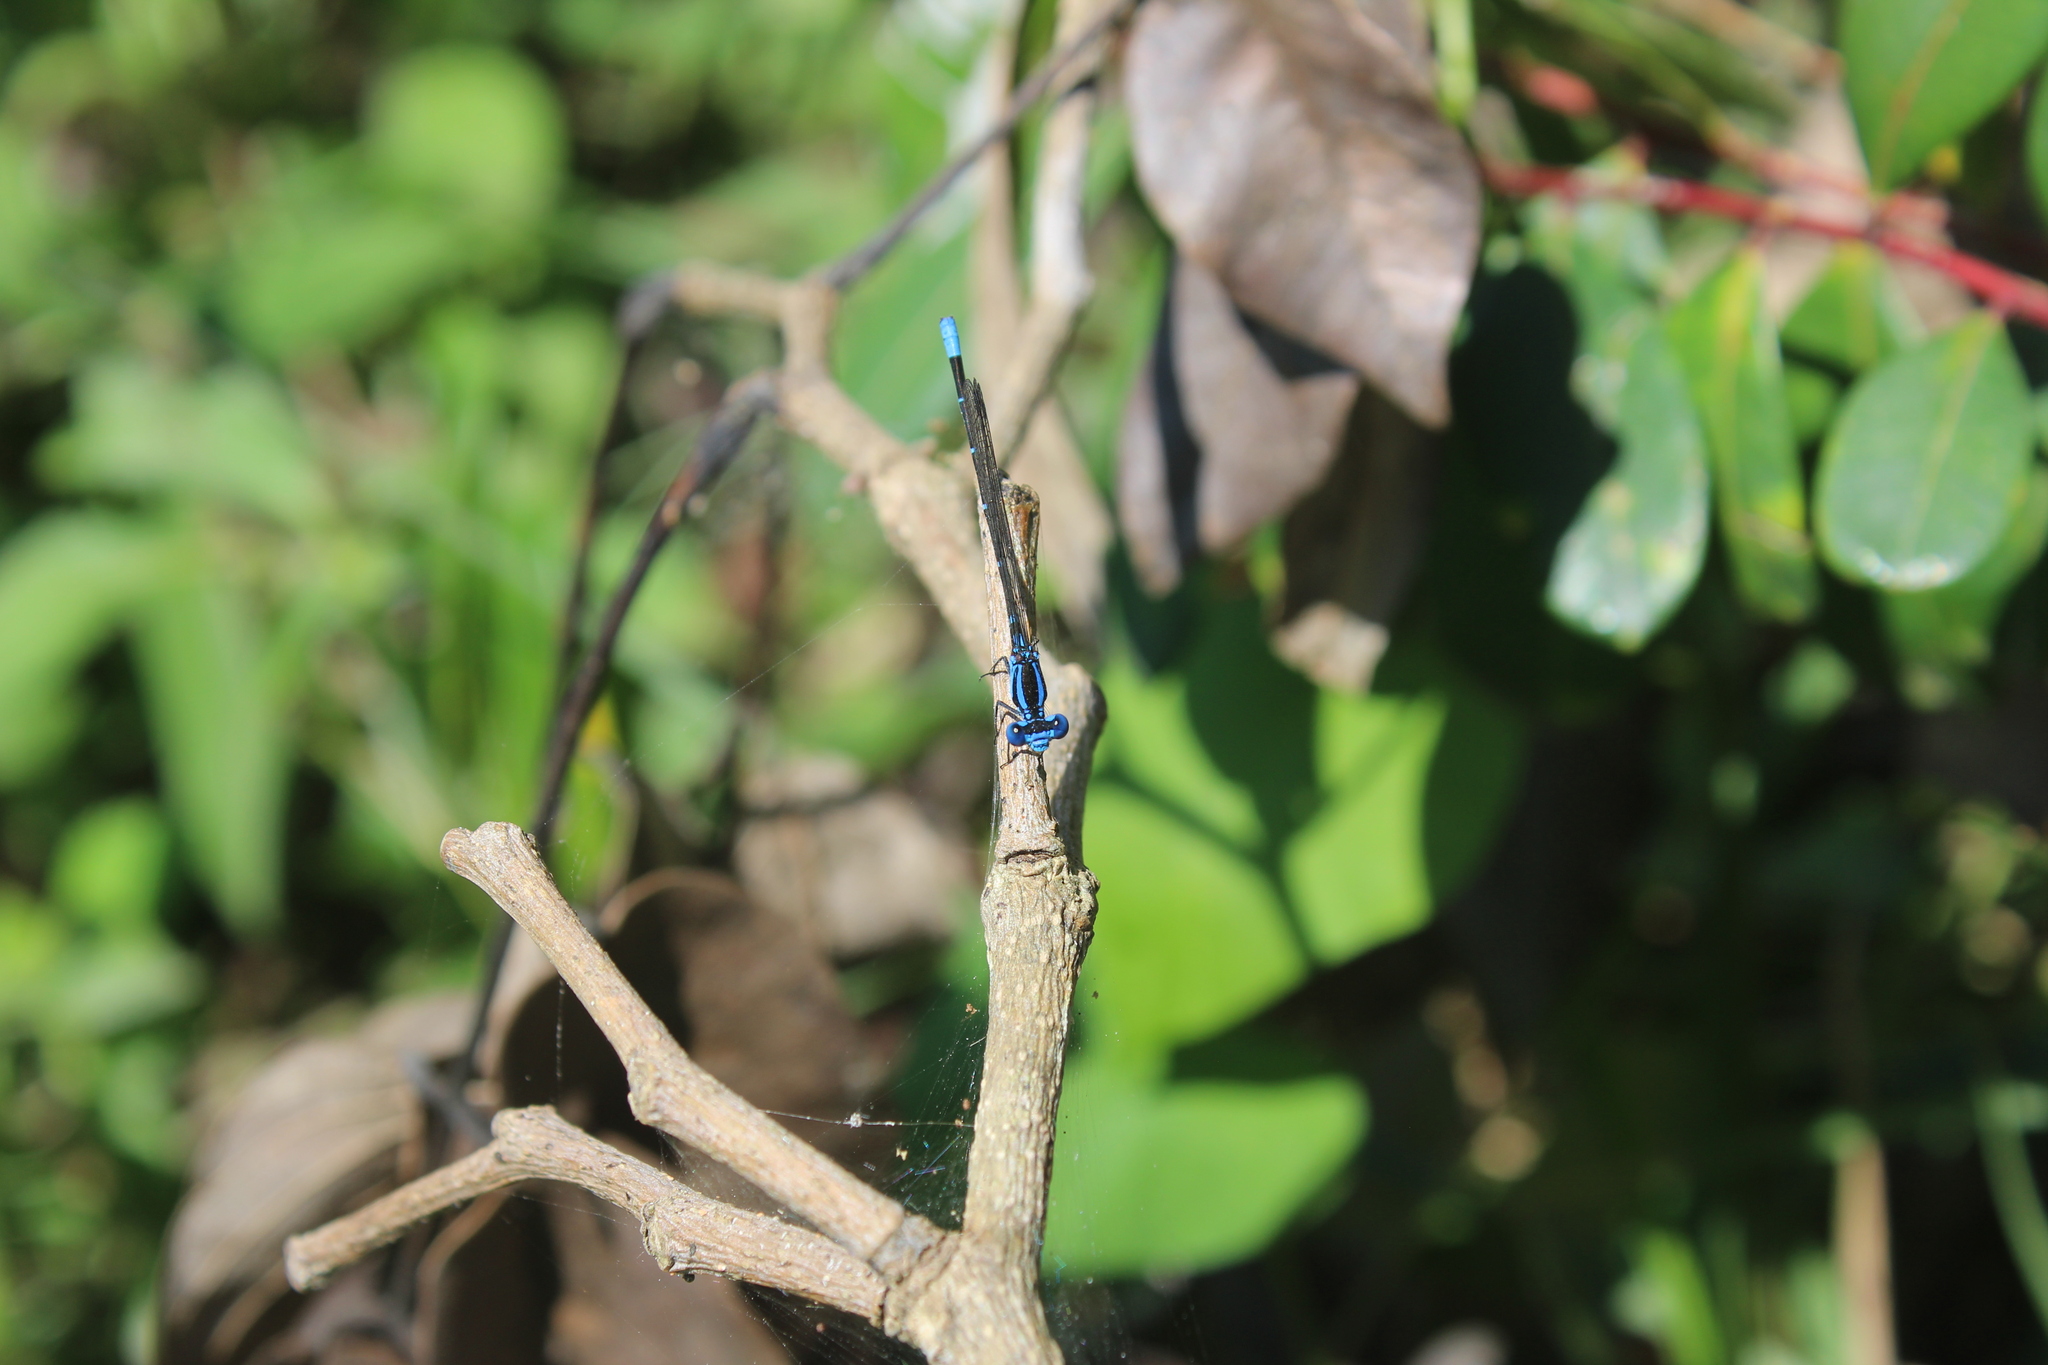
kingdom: Animalia
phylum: Arthropoda
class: Insecta
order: Odonata
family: Coenagrionidae
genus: Argia
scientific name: Argia gaumeri
